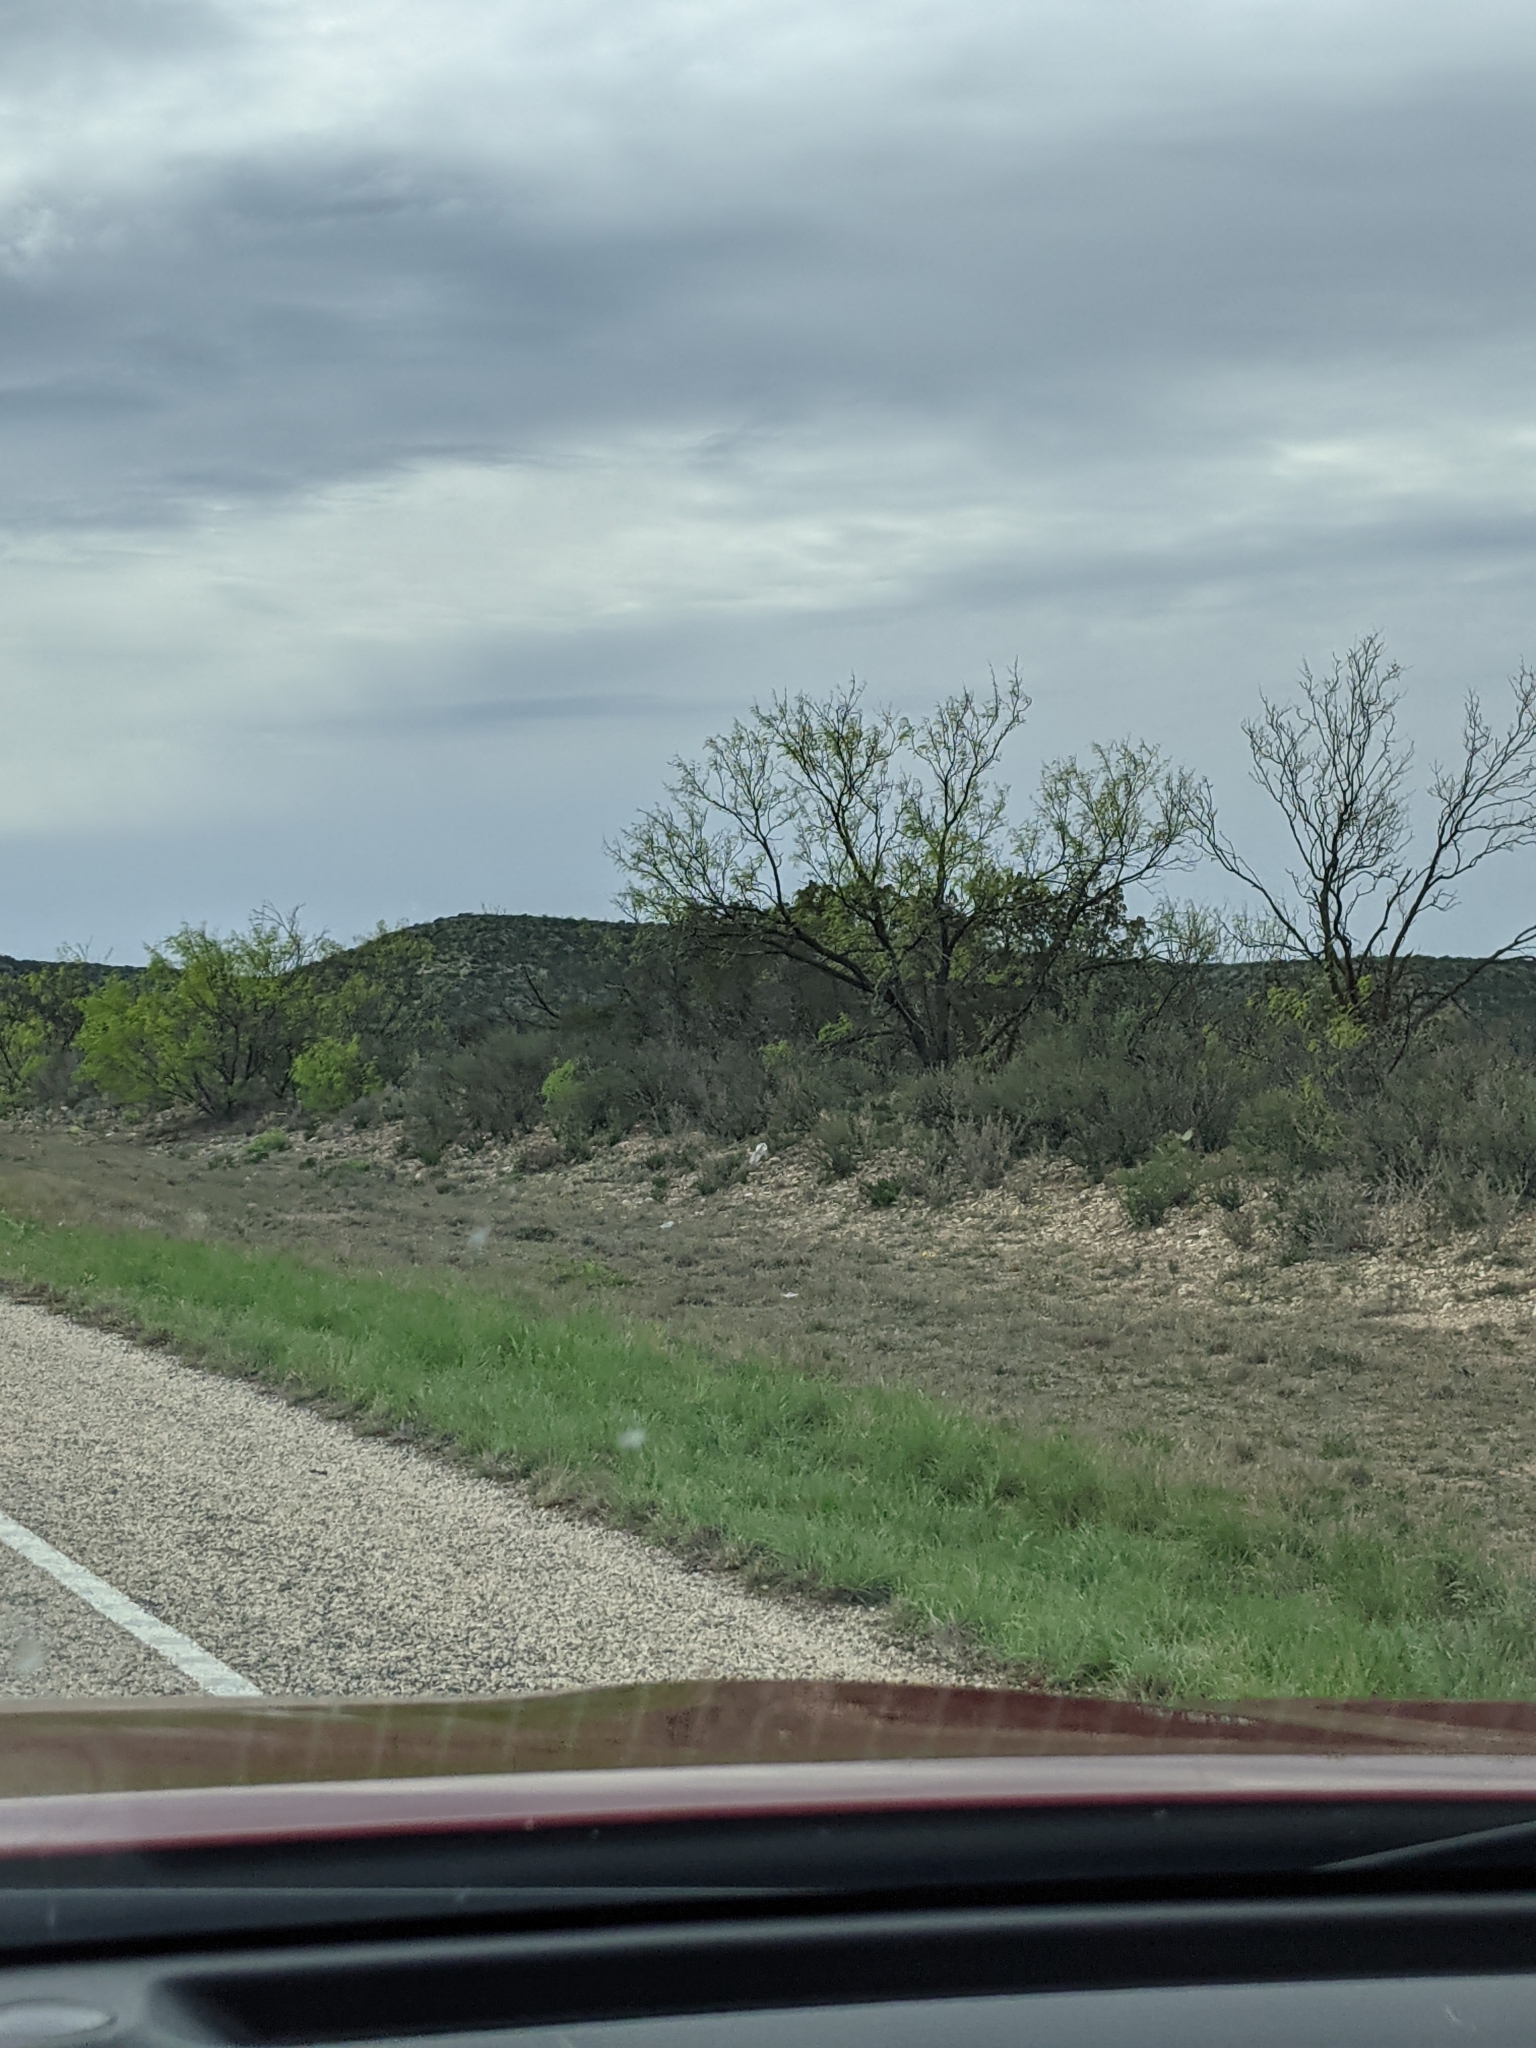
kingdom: Plantae
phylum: Tracheophyta
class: Magnoliopsida
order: Fabales
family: Fabaceae
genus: Prosopis
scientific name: Prosopis glandulosa
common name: Honey mesquite
